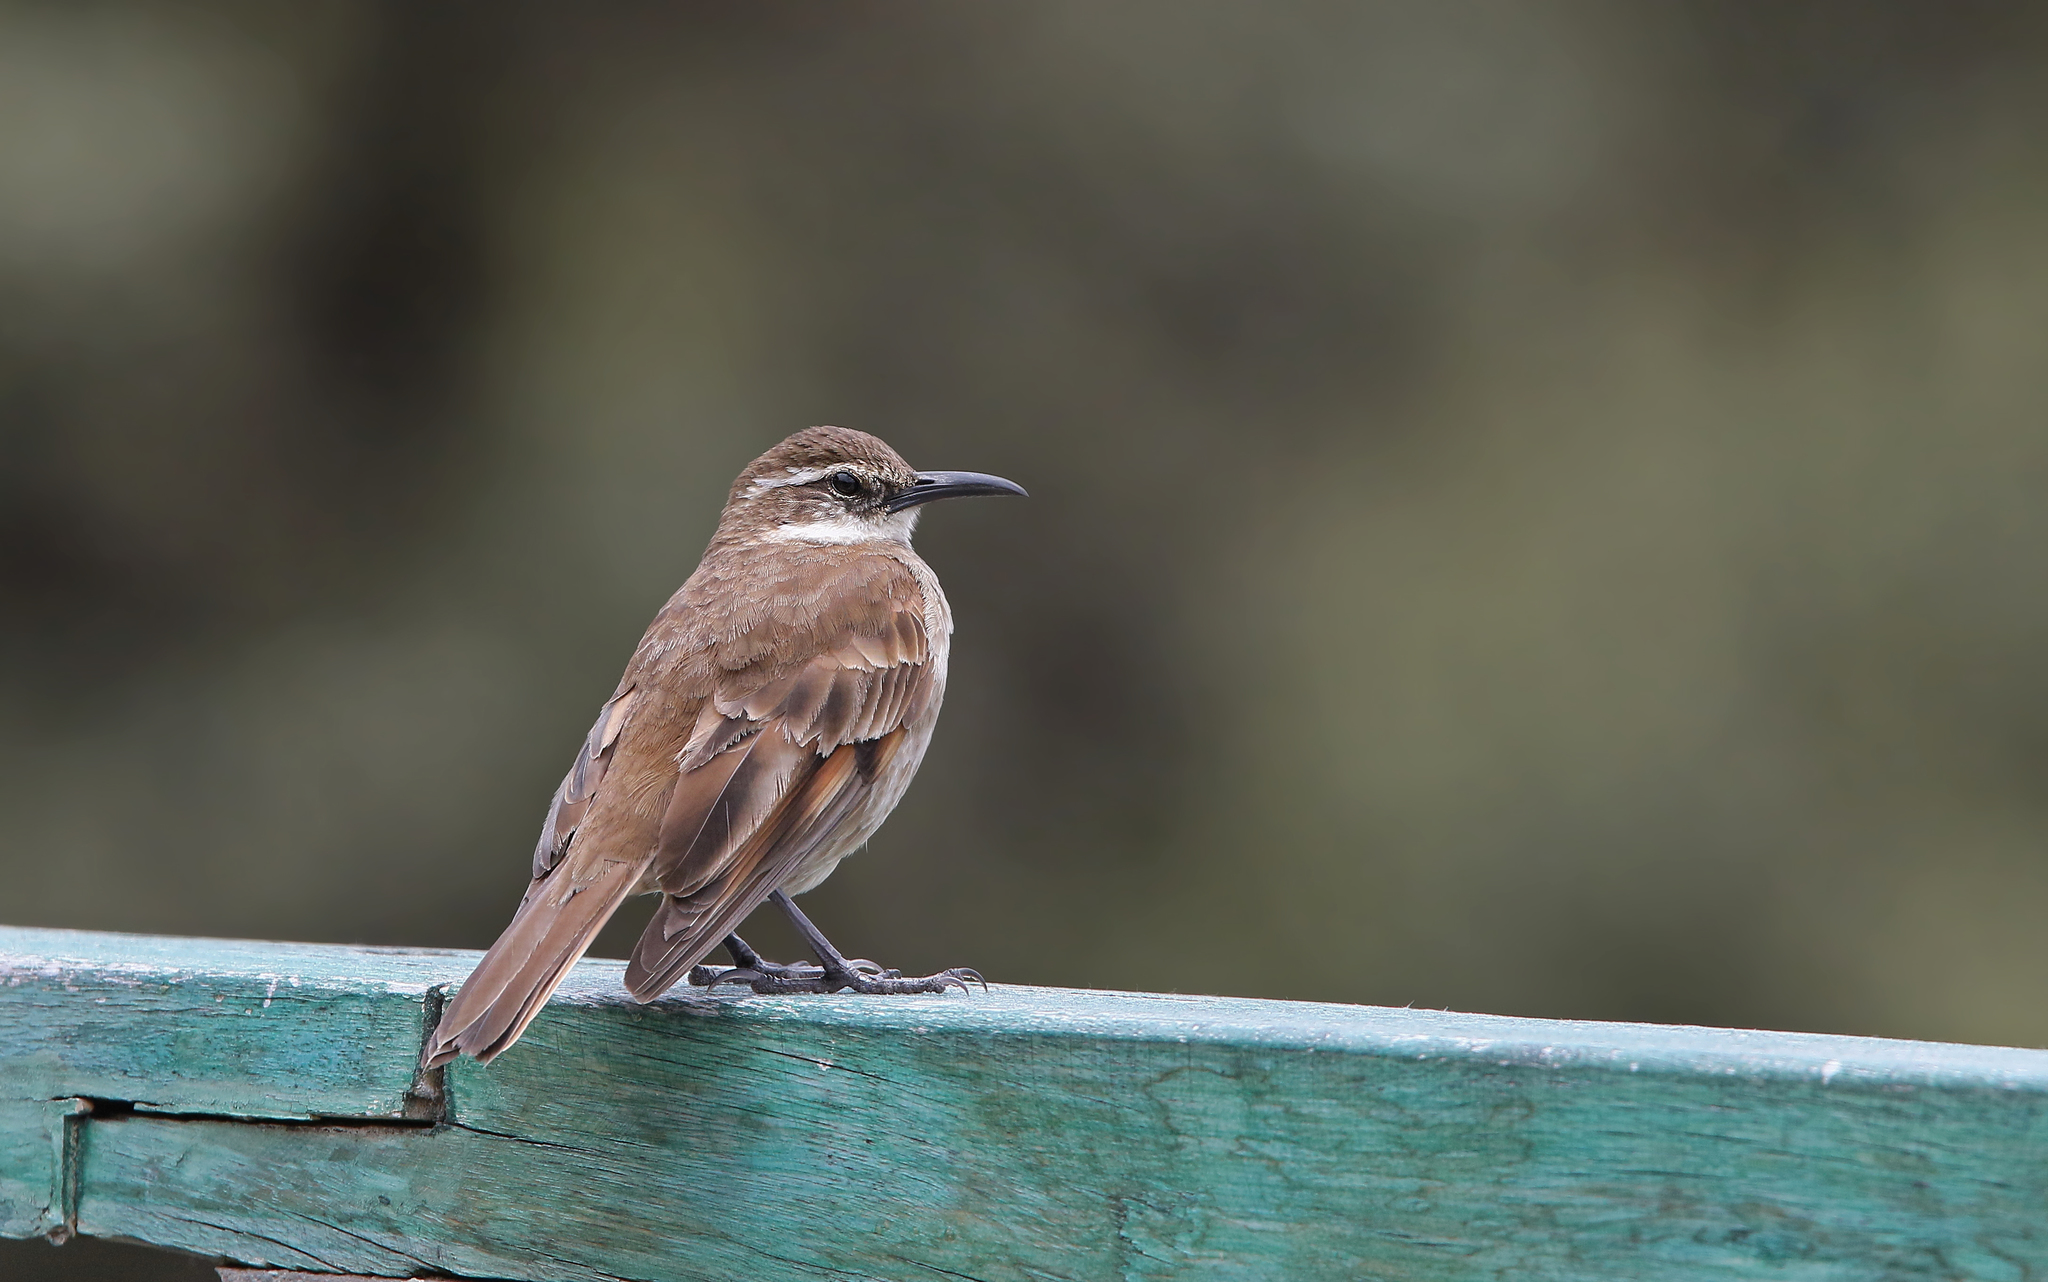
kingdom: Animalia
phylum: Chordata
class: Aves
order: Passeriformes
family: Furnariidae
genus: Cinclodes
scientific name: Cinclodes excelsior
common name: Stout-billed cinclodes
